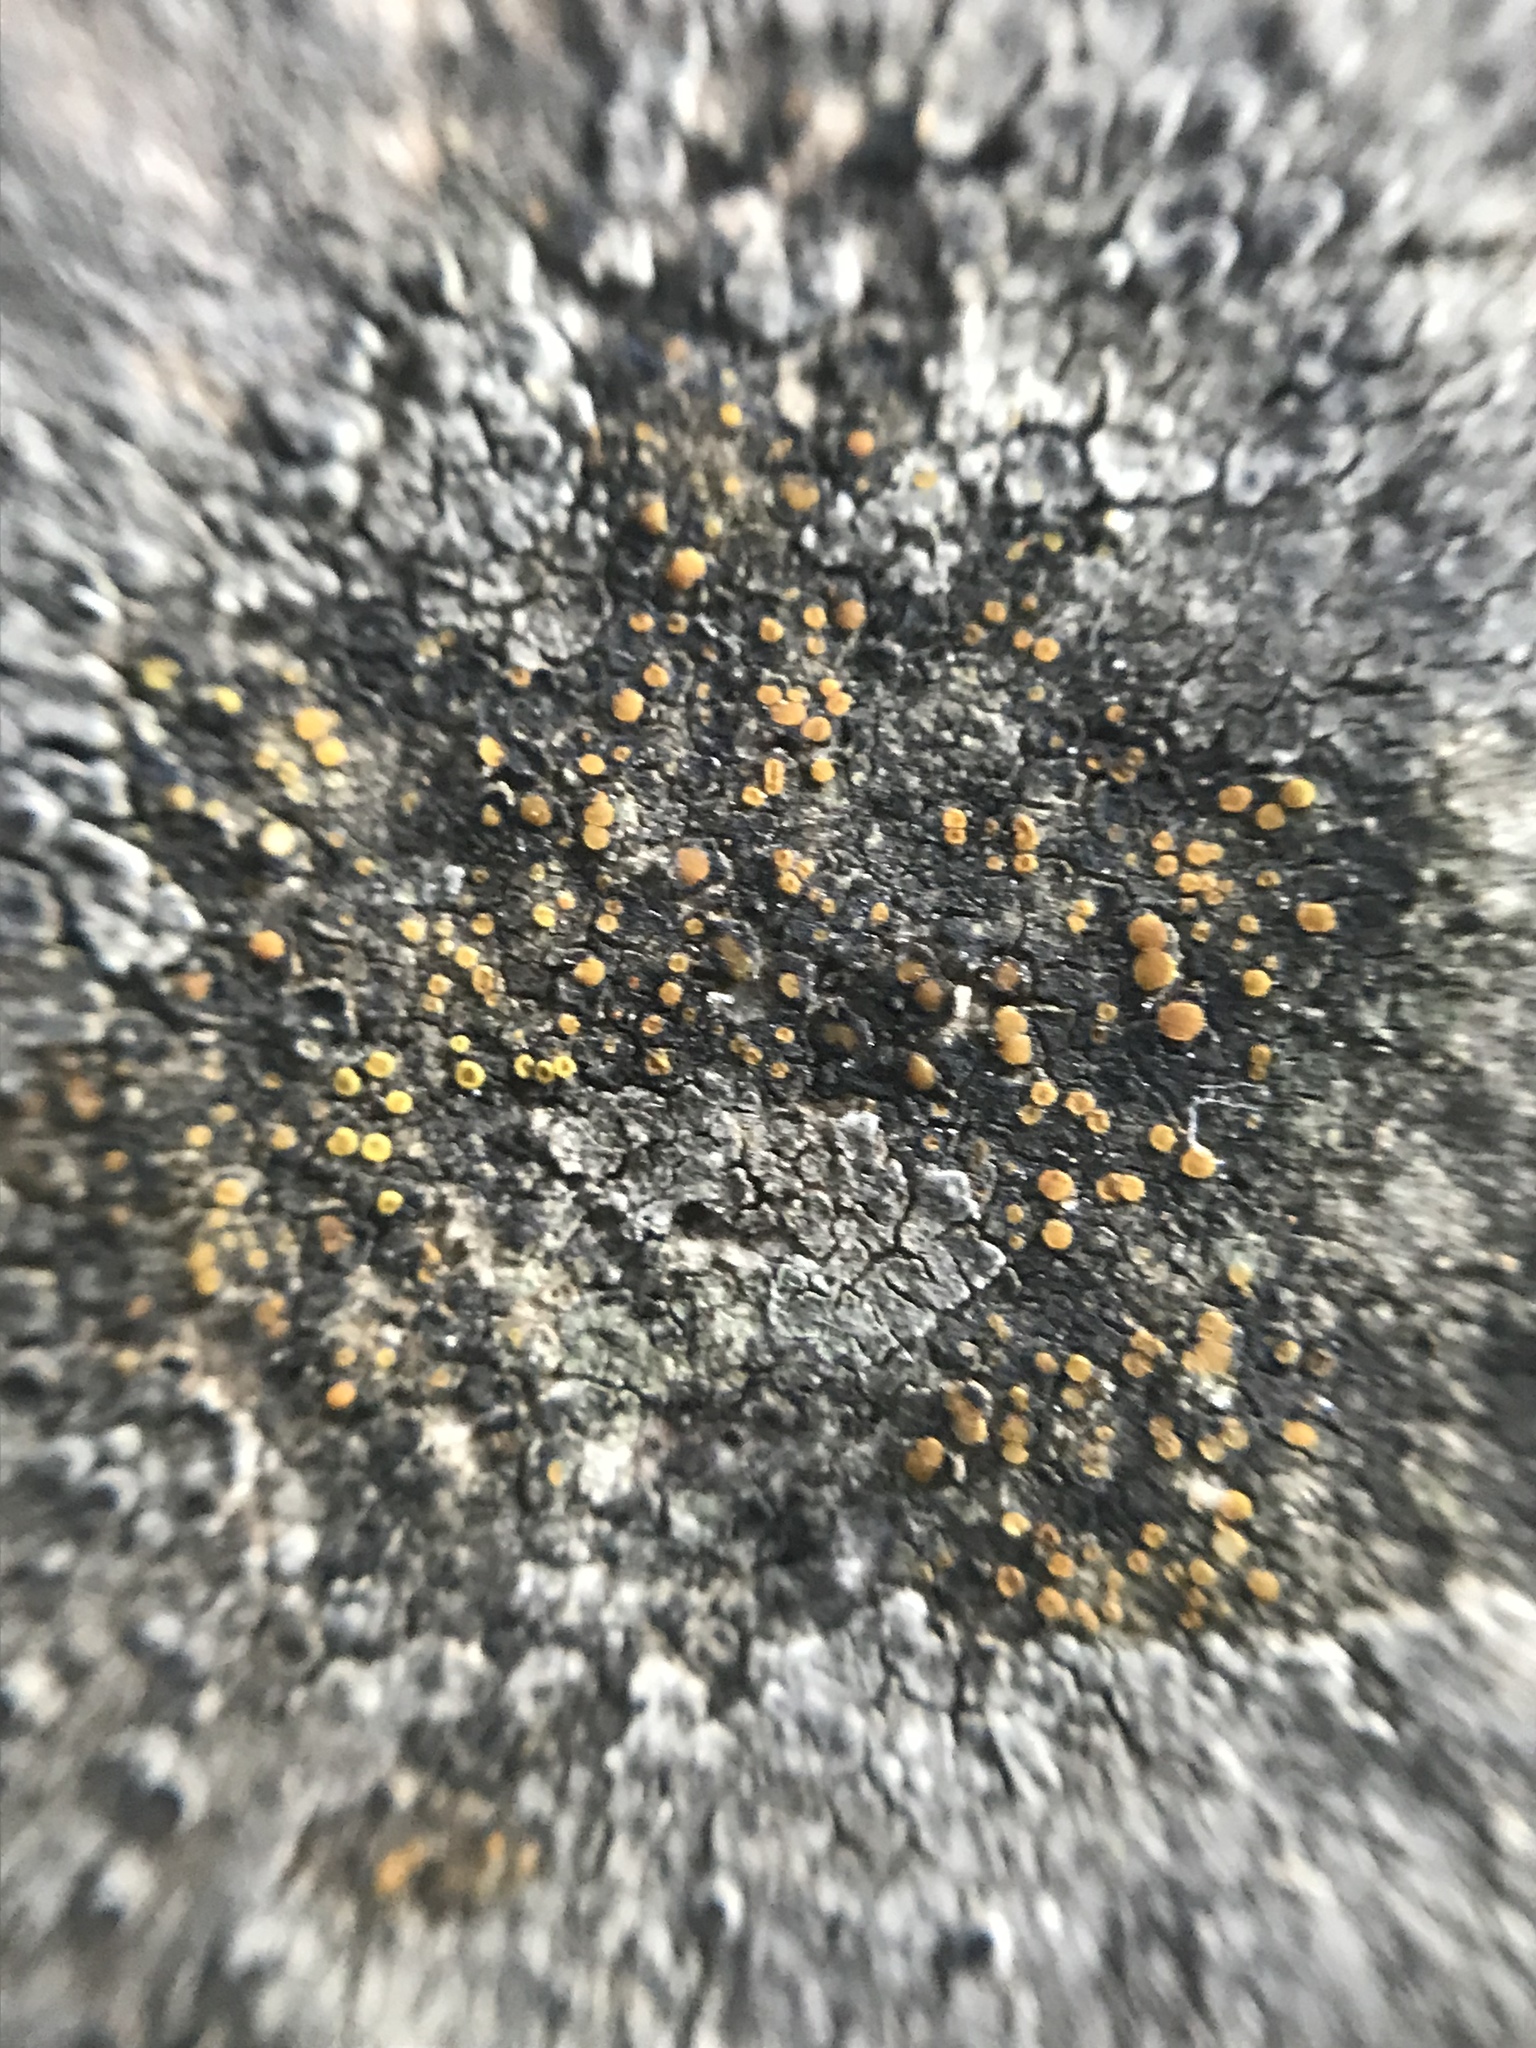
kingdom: Fungi
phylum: Ascomycota
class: Lecanoromycetes
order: Teloschistales
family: Teloschistaceae
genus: Xanthocarpia
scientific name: Xanthocarpia feracissima
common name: Sidewalk firedot
